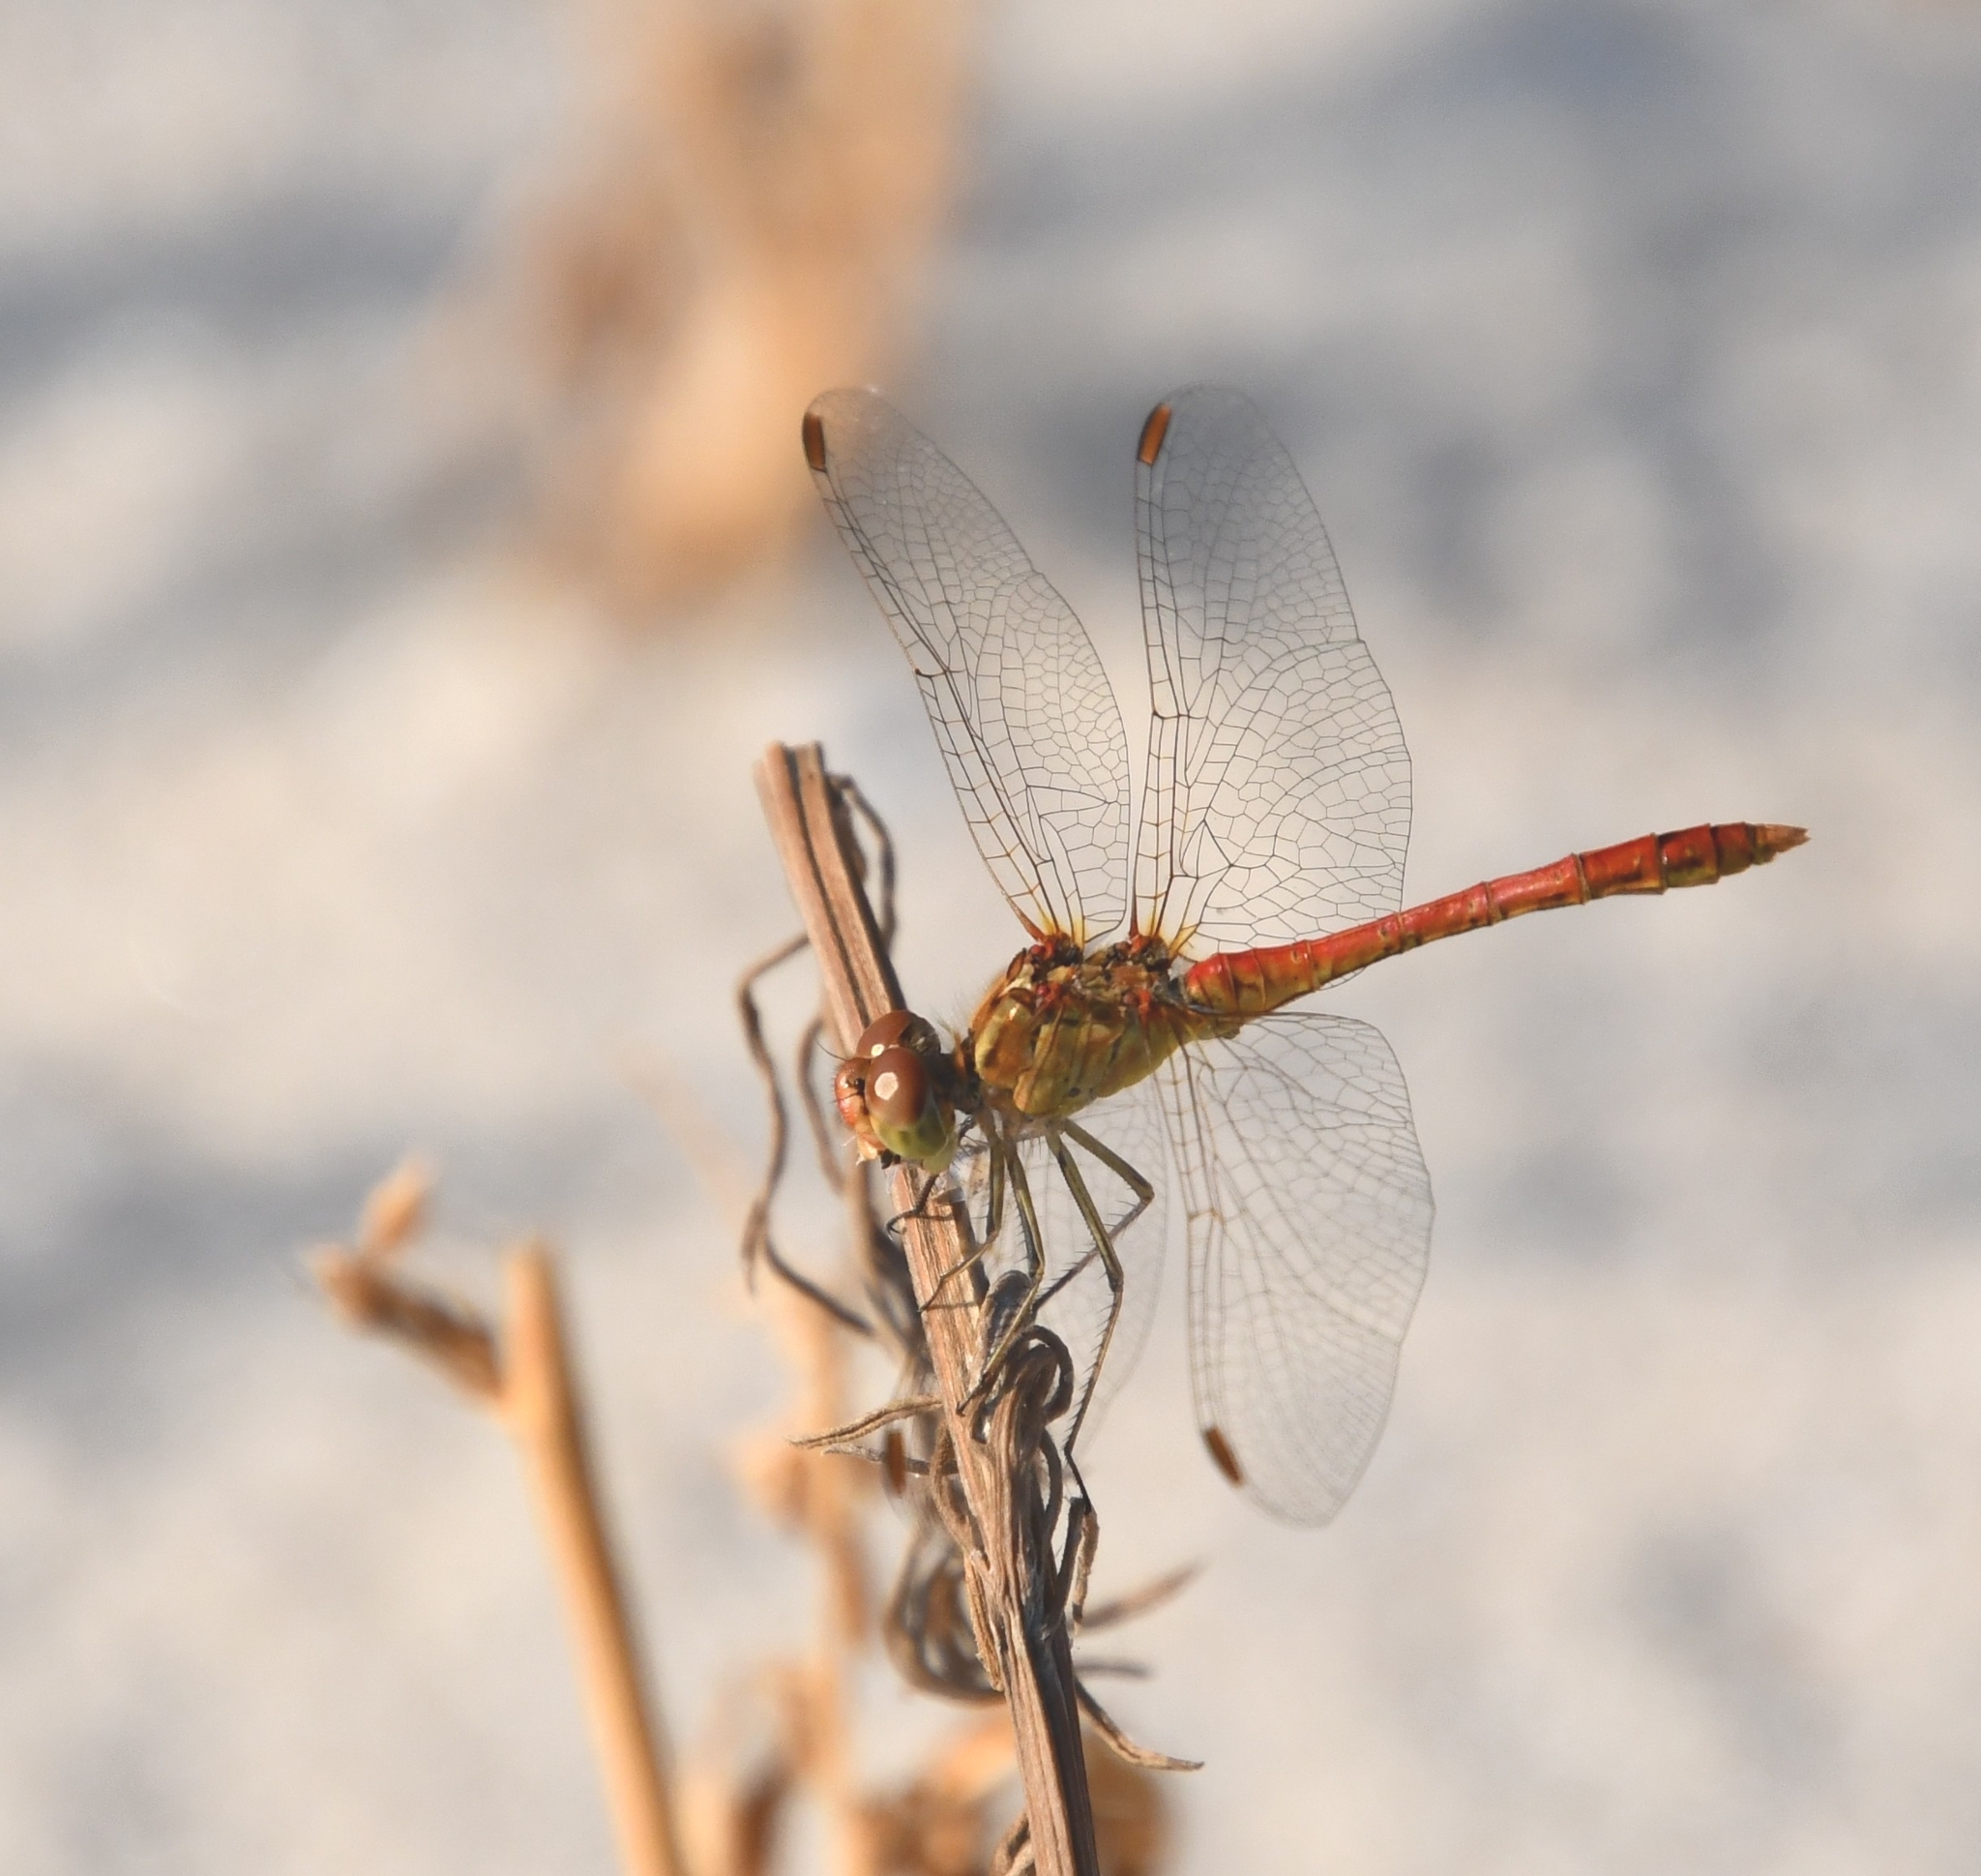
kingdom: Animalia
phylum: Arthropoda
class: Insecta
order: Odonata
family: Libellulidae
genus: Sympetrum
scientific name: Sympetrum meridionale
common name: Southern darter
